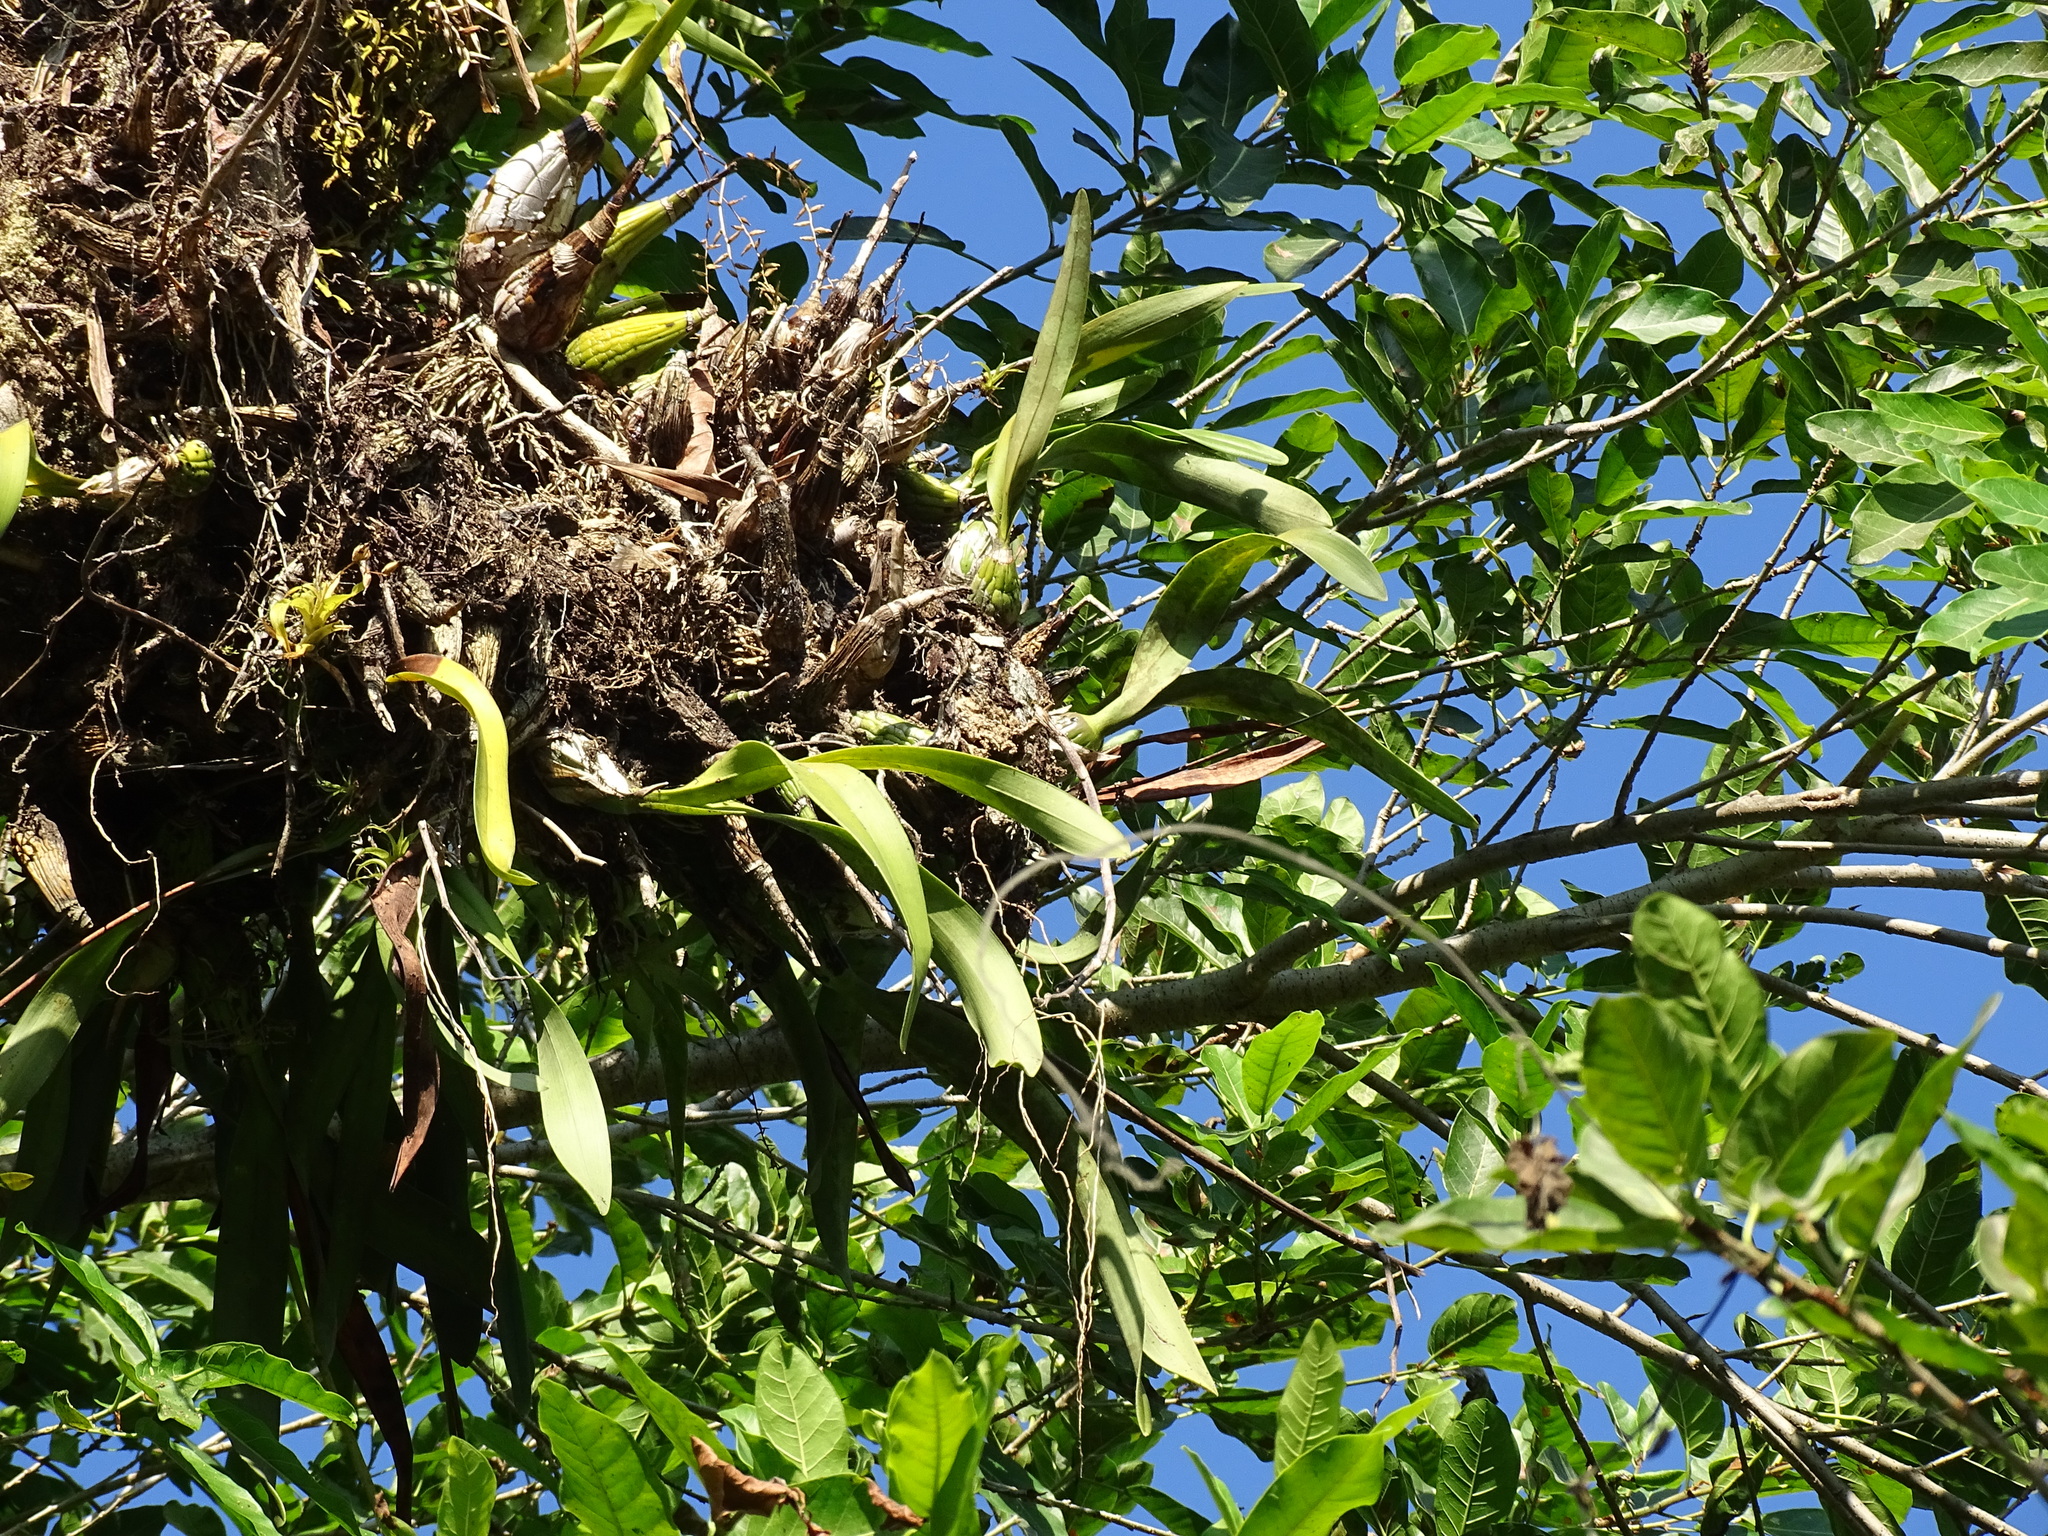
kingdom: Plantae
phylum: Tracheophyta
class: Liliopsida
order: Asparagales
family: Orchidaceae
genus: Encyclia
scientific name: Encyclia cordigera
